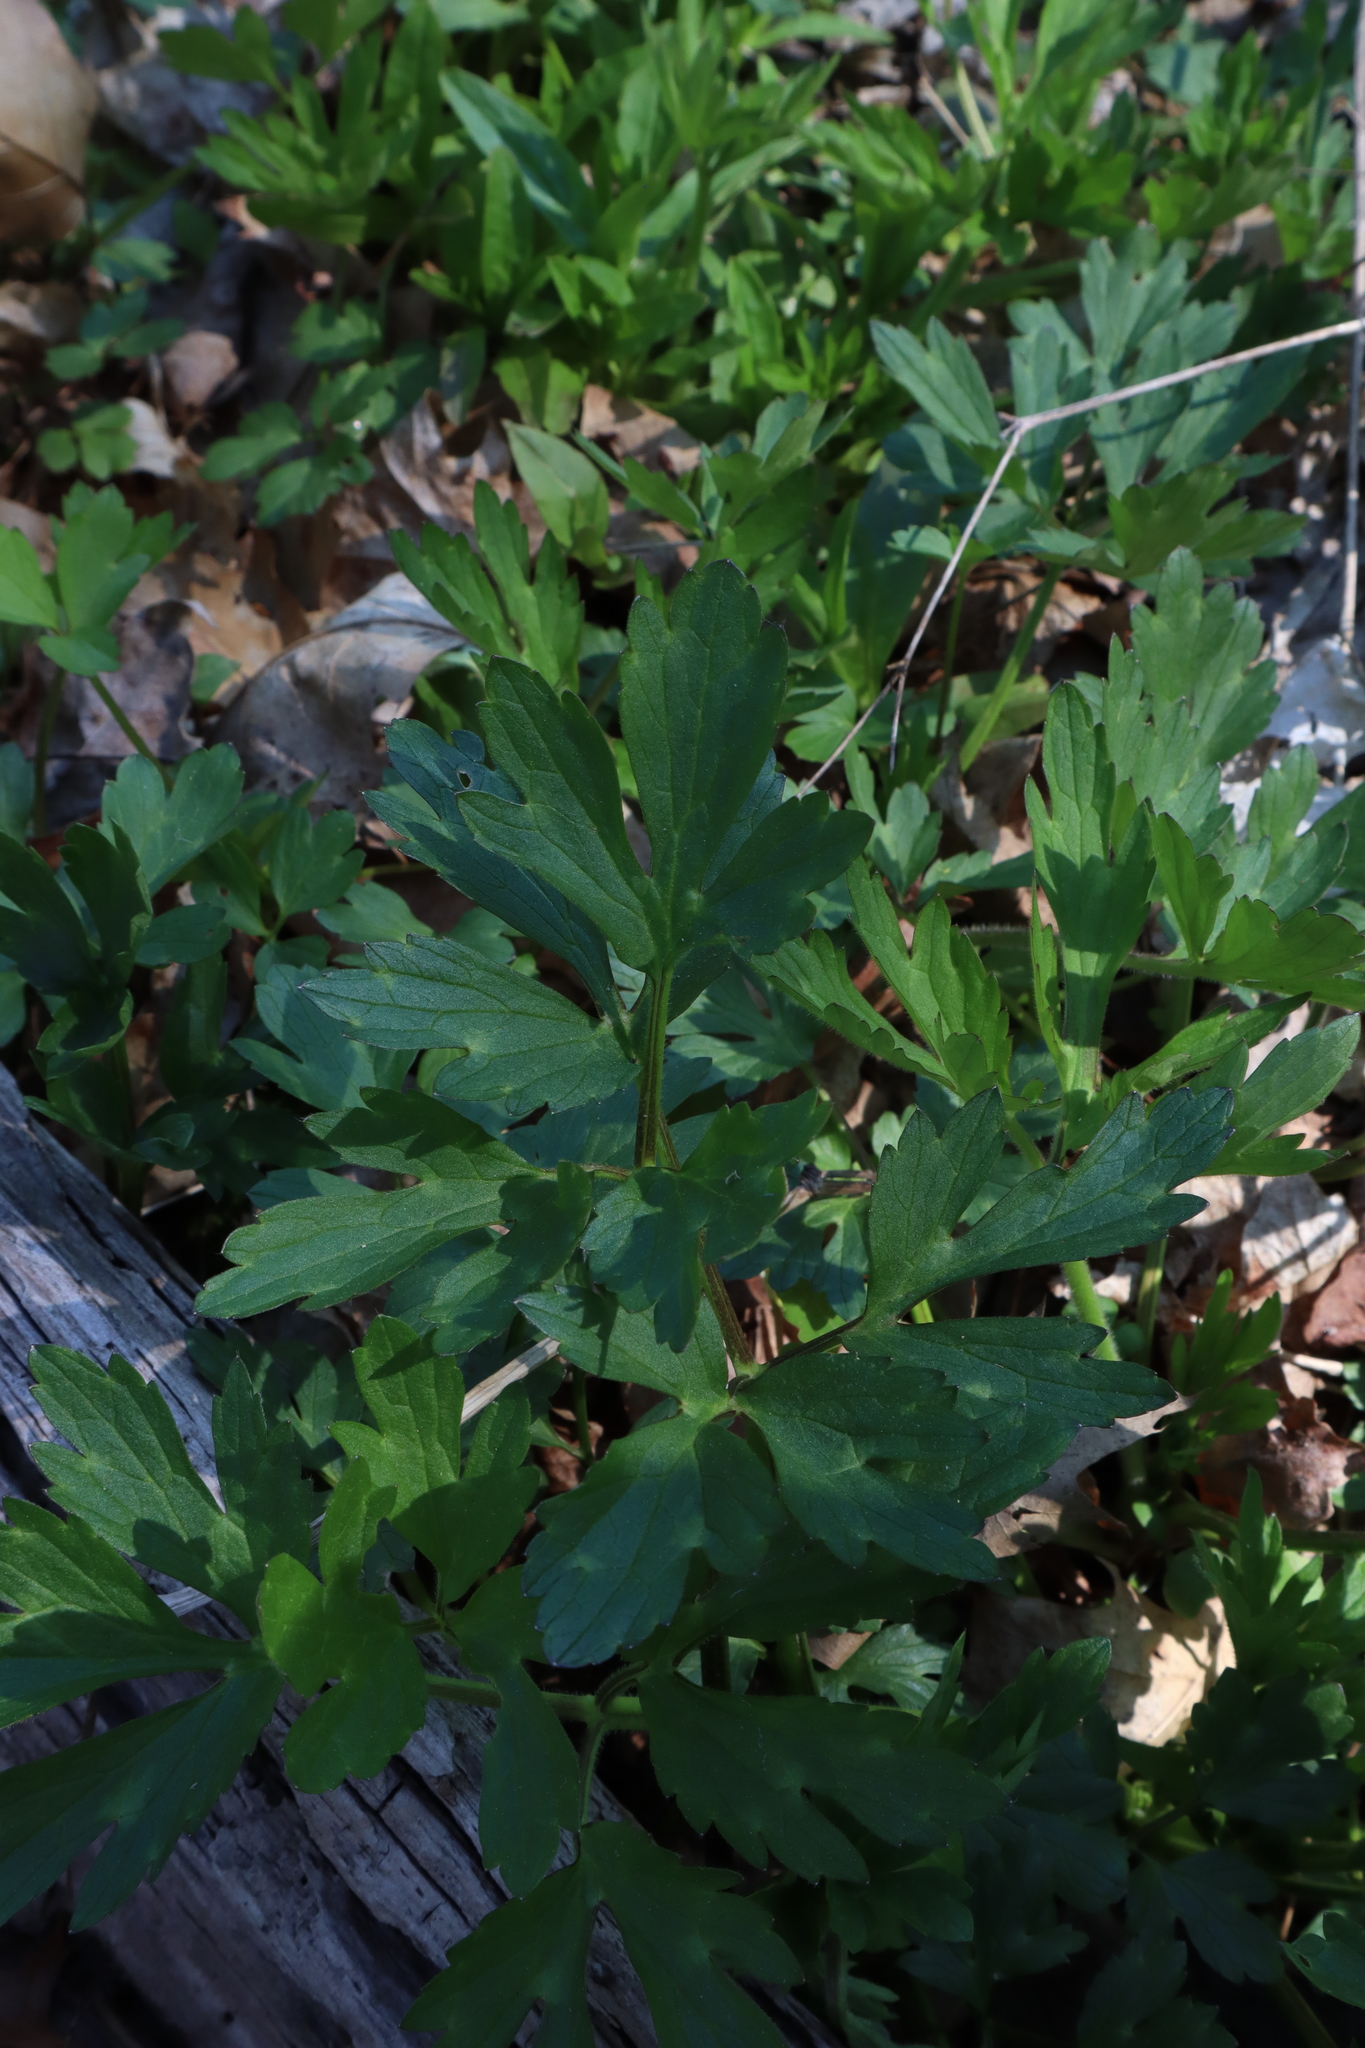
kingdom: Plantae
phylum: Tracheophyta
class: Magnoliopsida
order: Ranunculales
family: Ranunculaceae
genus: Ranunculus
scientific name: Ranunculus repens
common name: Creeping buttercup
